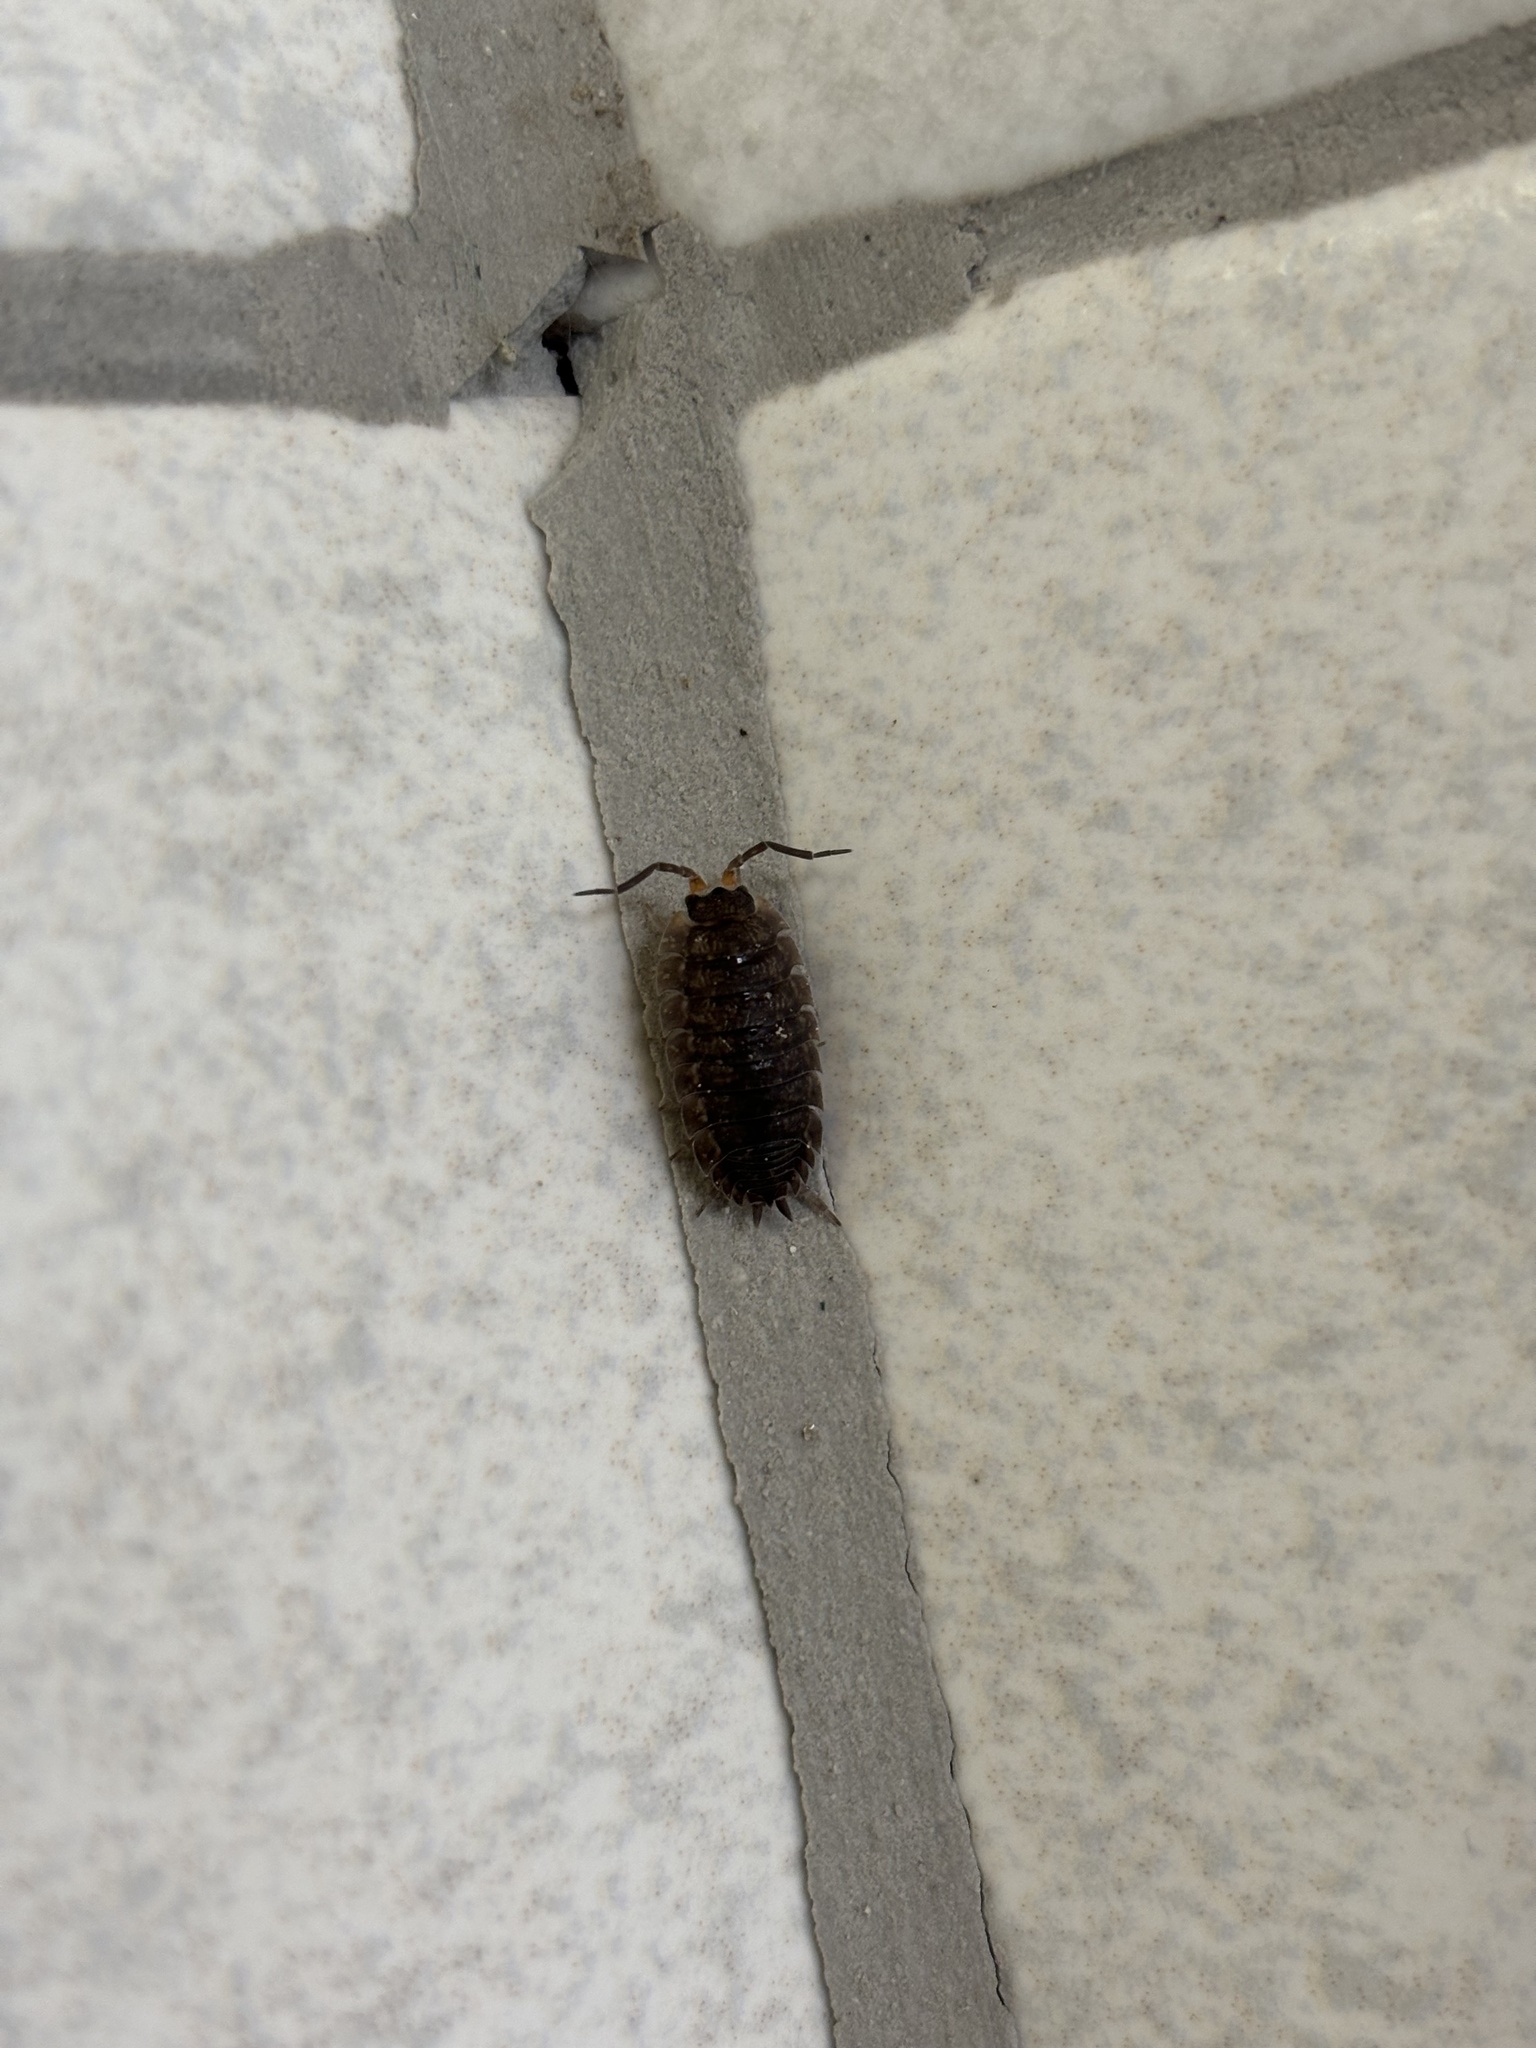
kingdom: Animalia
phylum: Arthropoda
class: Malacostraca
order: Isopoda
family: Porcellionidae
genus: Porcellio
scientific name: Porcellio scaber
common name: Common rough woodlouse
